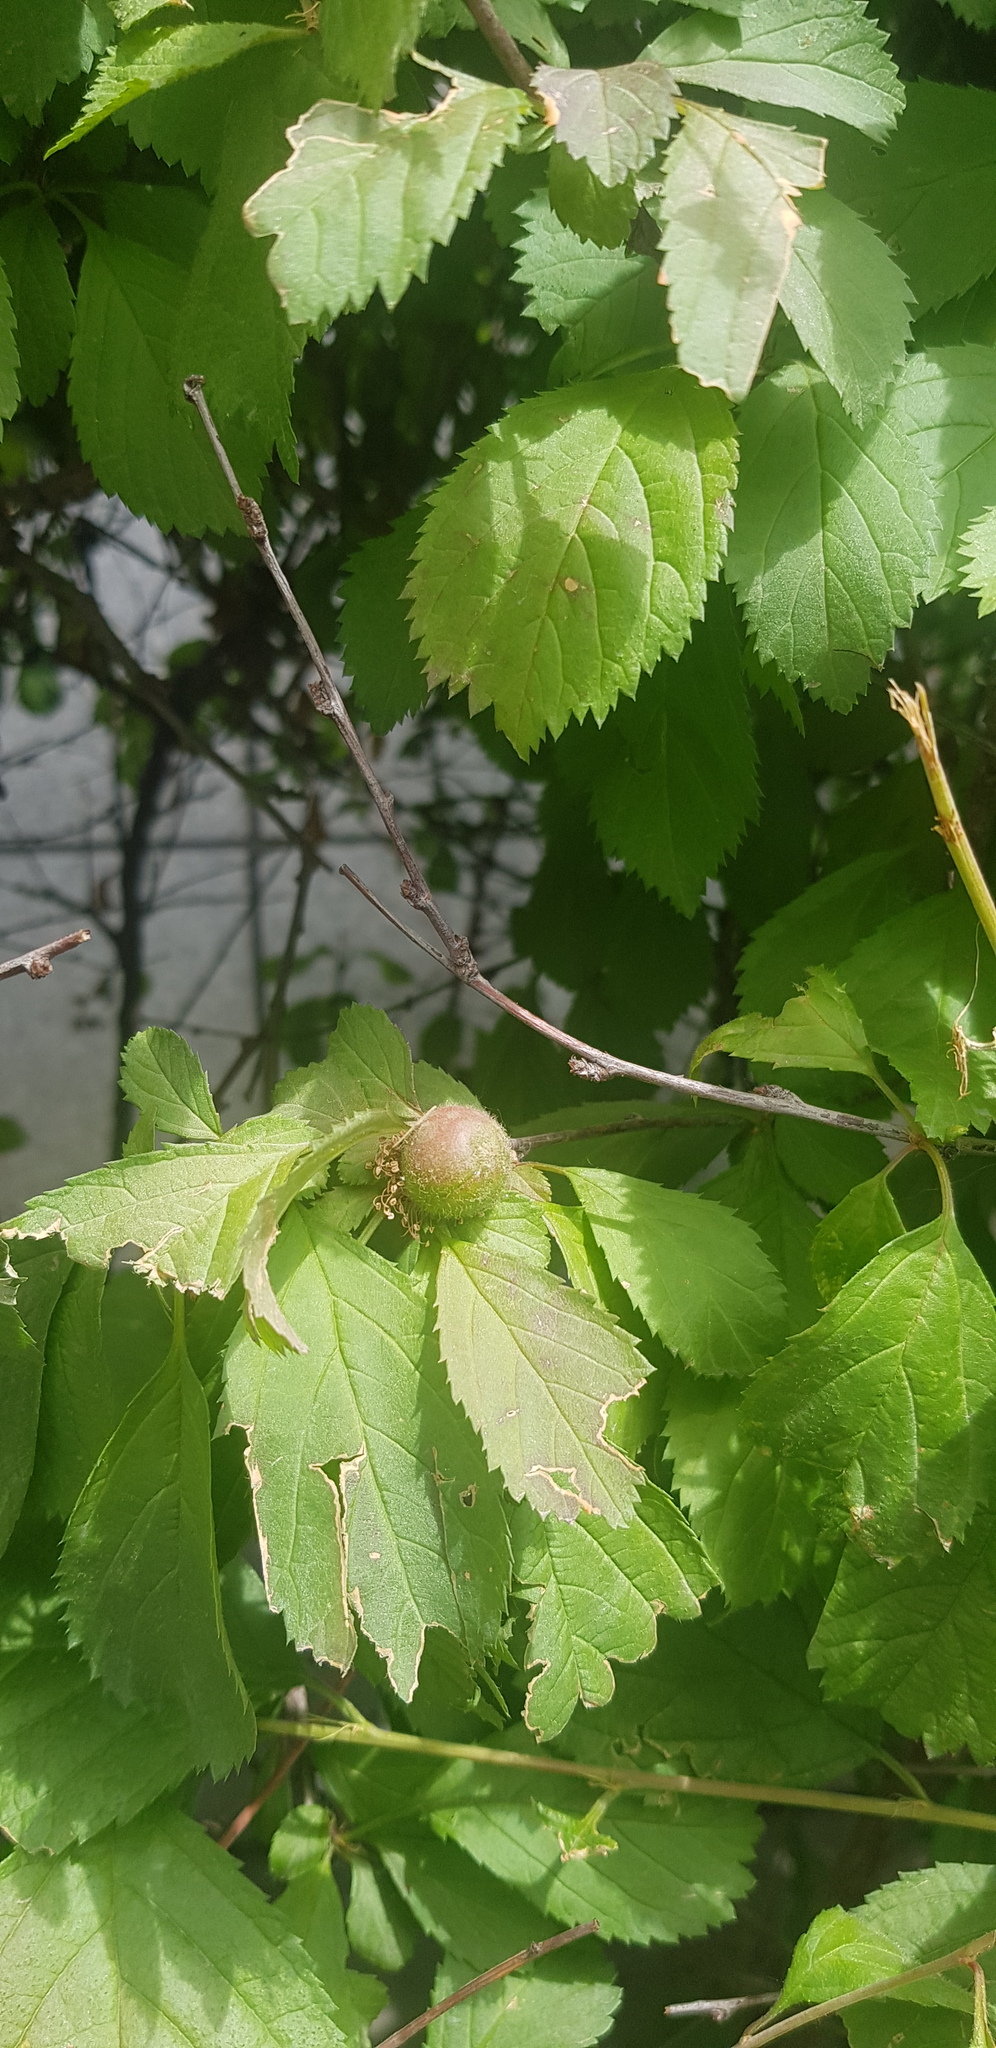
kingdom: Plantae
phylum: Tracheophyta
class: Magnoliopsida
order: Rosales
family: Rosaceae
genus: Prunus
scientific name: Prunus triloba
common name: Flowering plum
